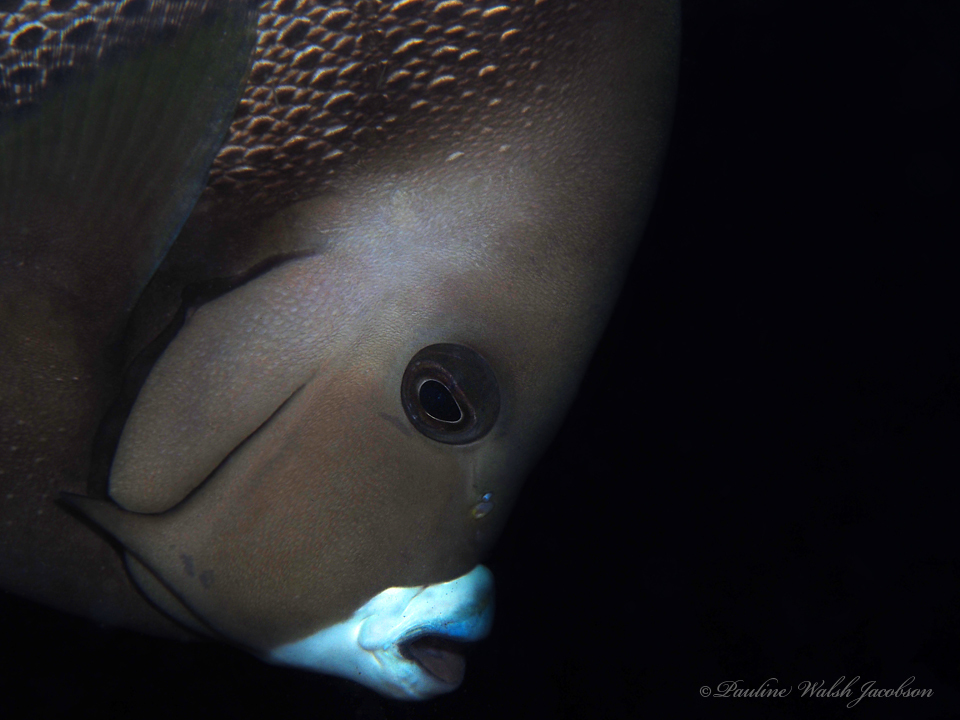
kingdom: Animalia
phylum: Chordata
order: Perciformes
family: Pomacanthidae
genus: Pomacanthus
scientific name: Pomacanthus arcuatus
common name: Gray angelfish
